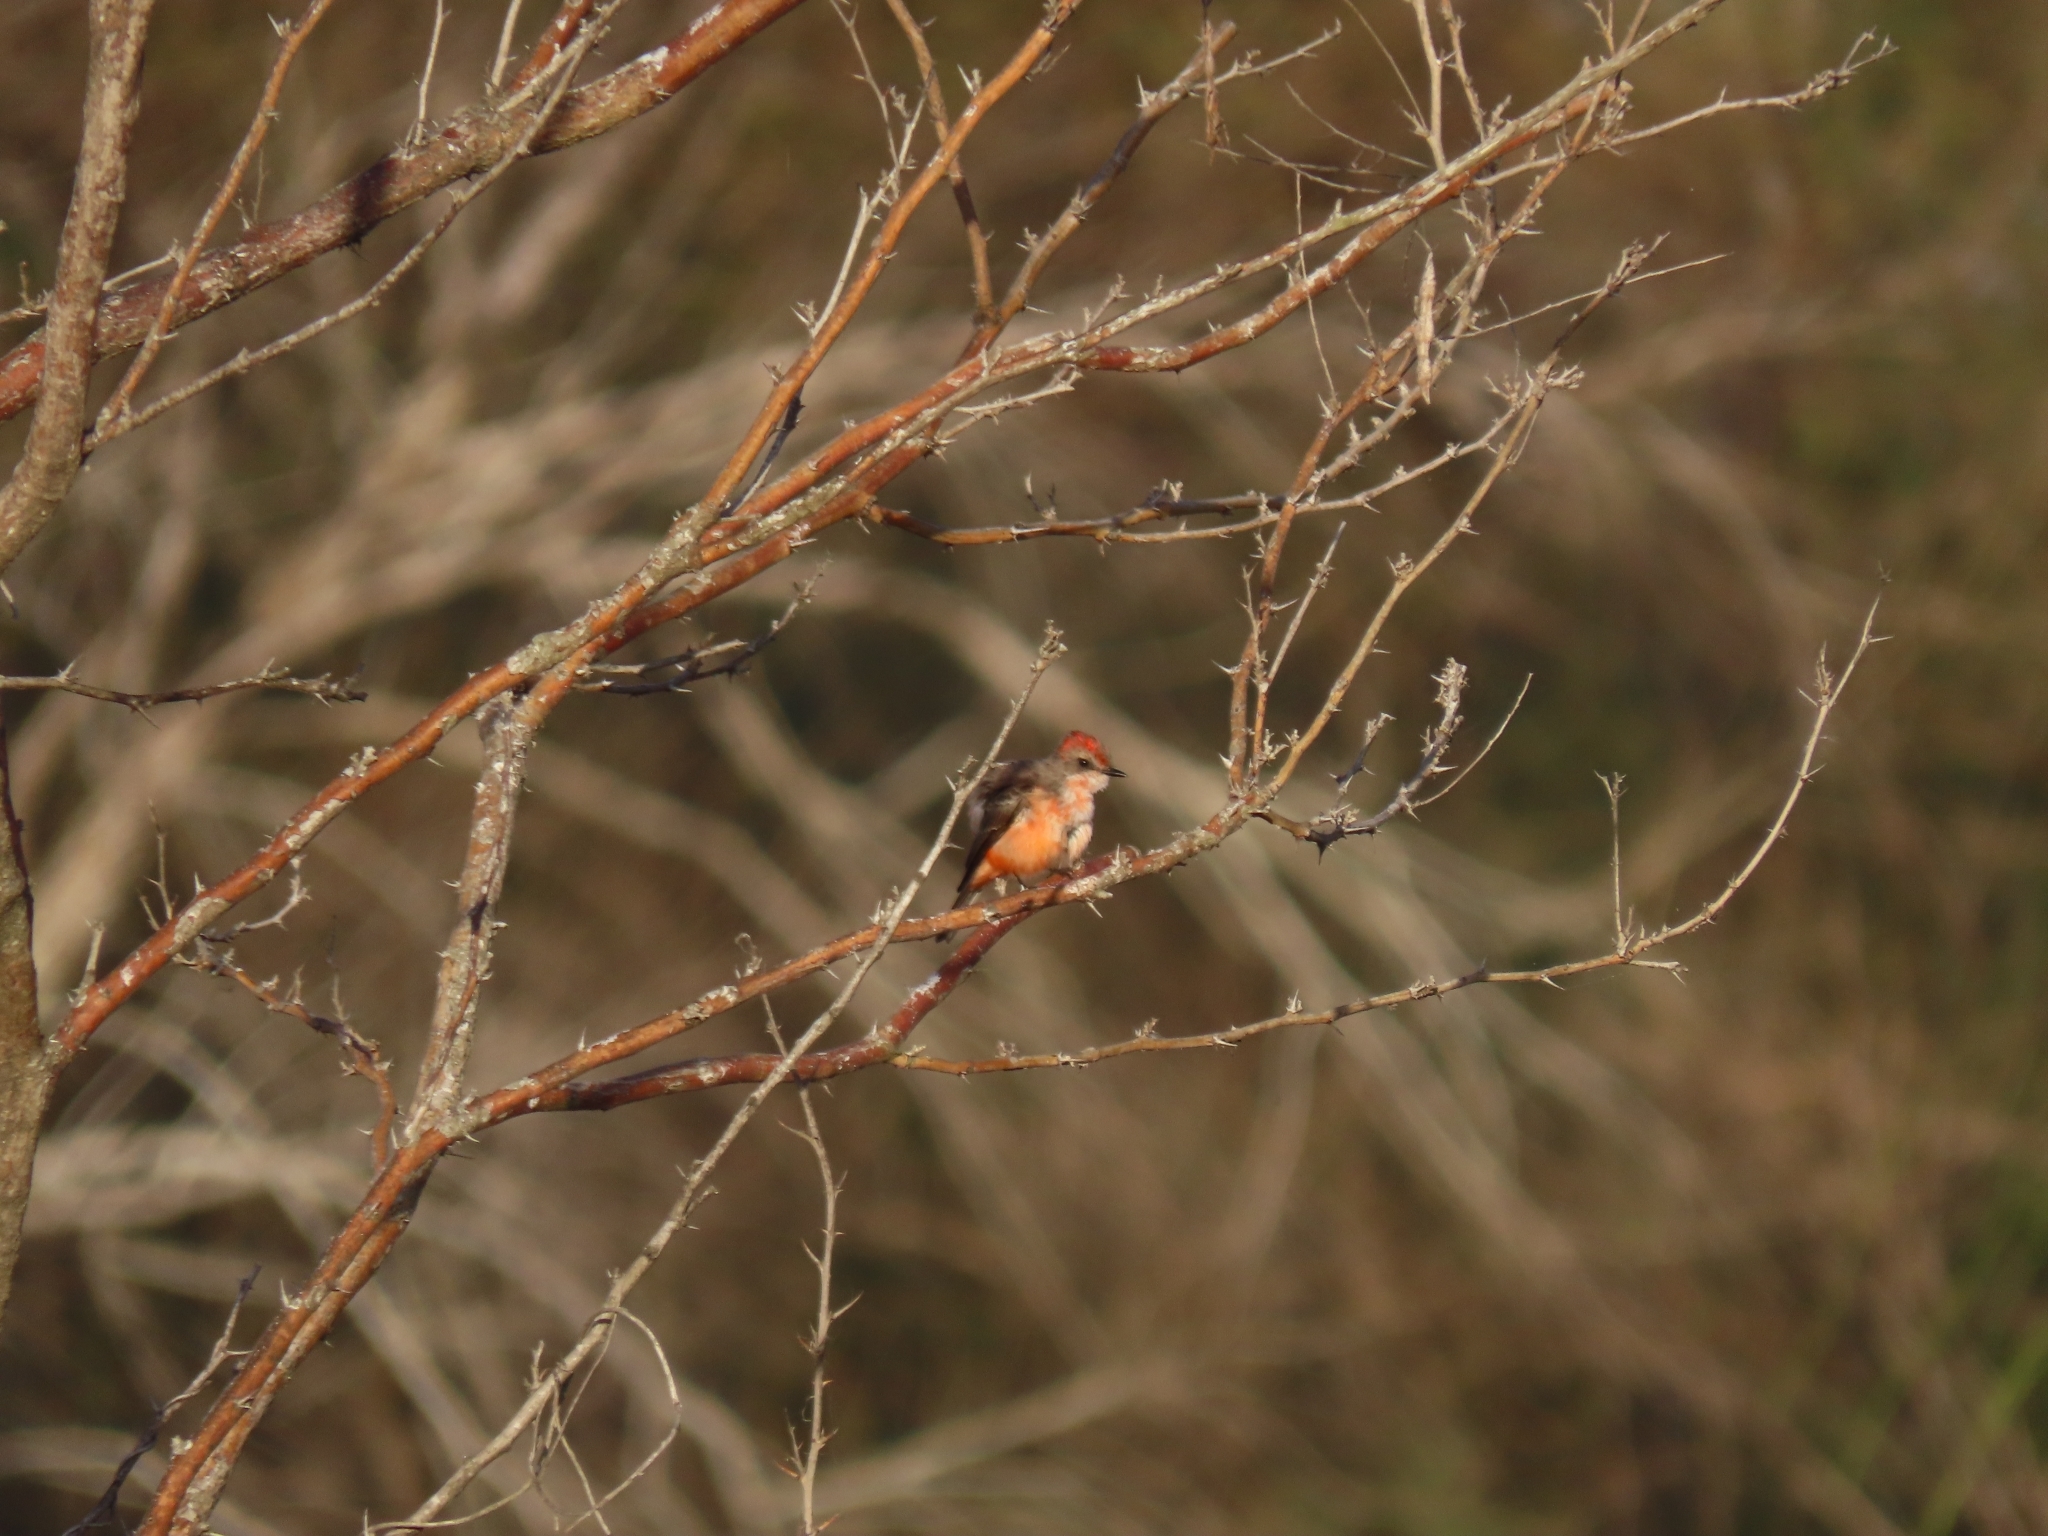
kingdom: Animalia
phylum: Chordata
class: Aves
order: Passeriformes
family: Tyrannidae
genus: Pyrocephalus
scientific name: Pyrocephalus rubinus
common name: Vermilion flycatcher
